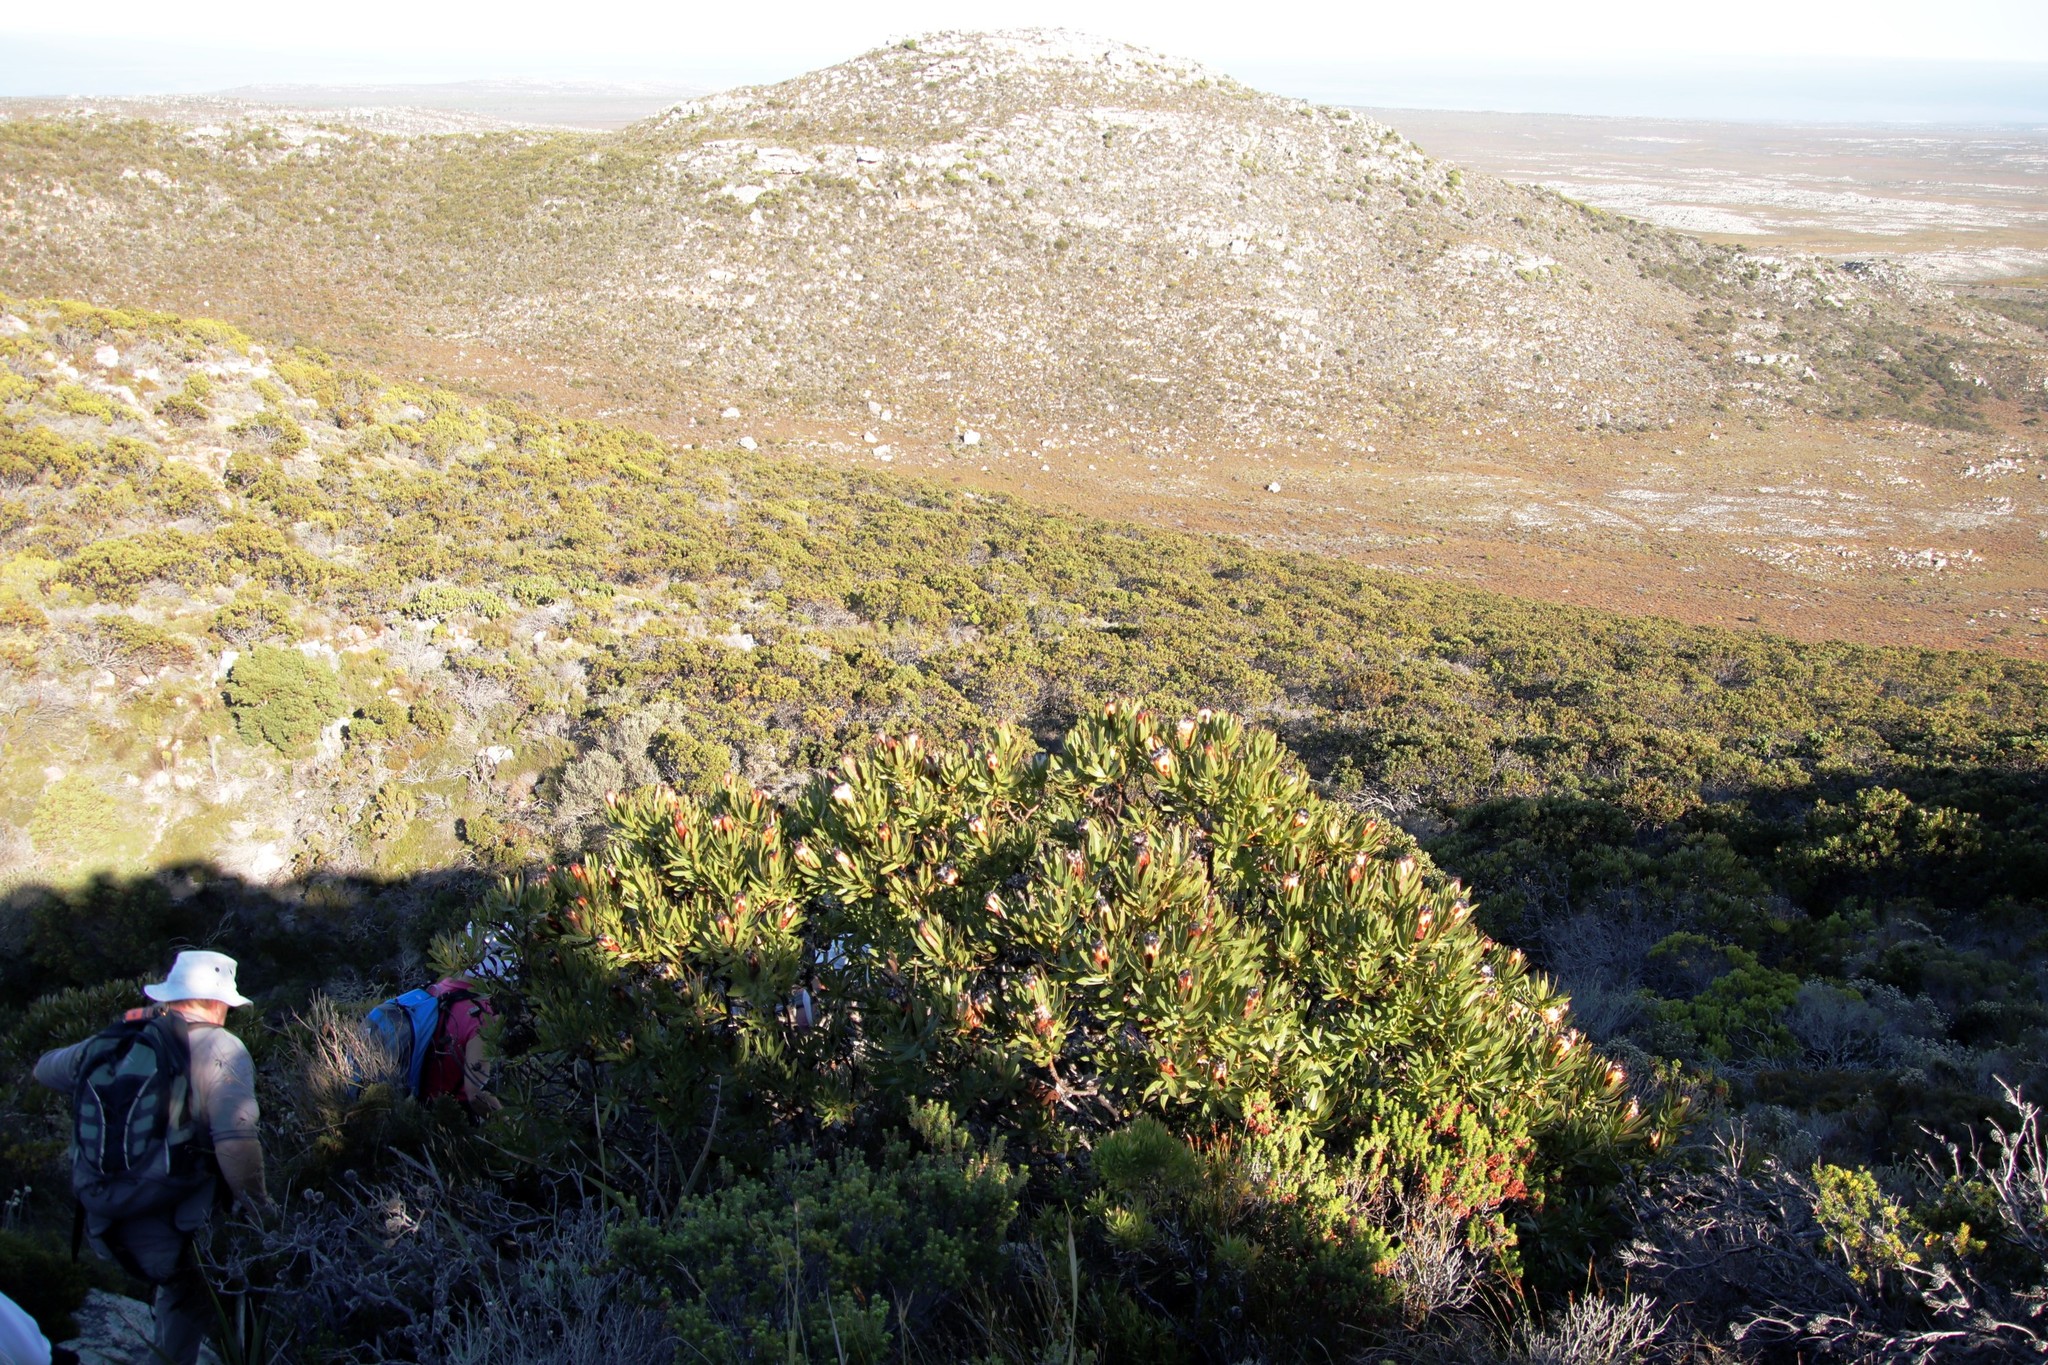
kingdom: Plantae
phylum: Tracheophyta
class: Magnoliopsida
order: Proteales
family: Proteaceae
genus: Protea
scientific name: Protea lepidocarpodendron
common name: Black-bearded protea
